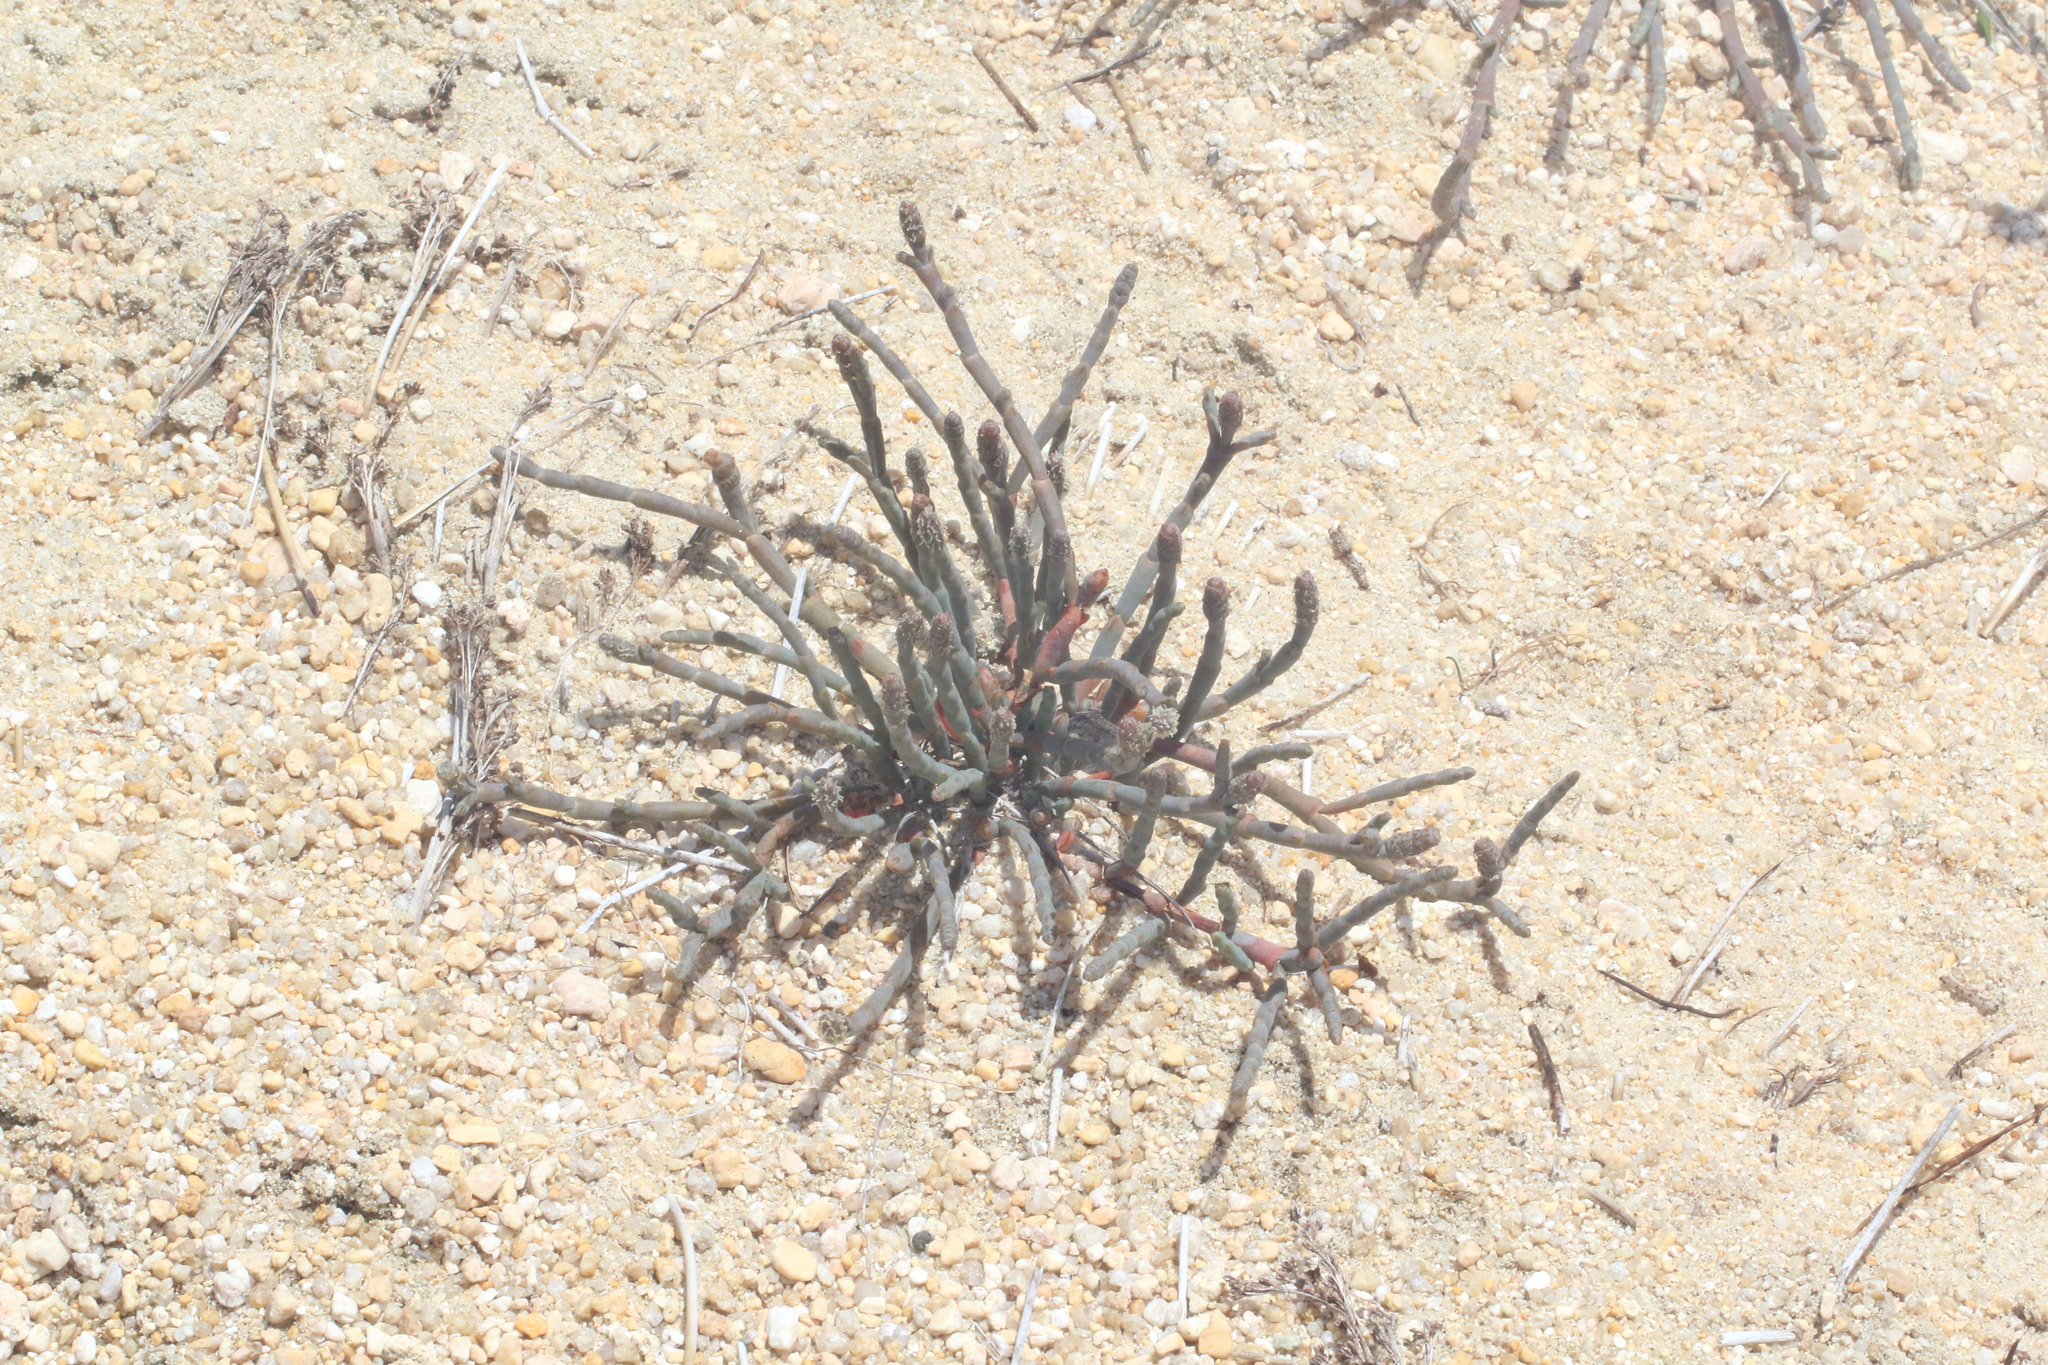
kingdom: Plantae
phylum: Tracheophyta
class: Magnoliopsida
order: Caryophyllales
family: Amaranthaceae
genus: Salicornia
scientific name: Salicornia quinqueflora
